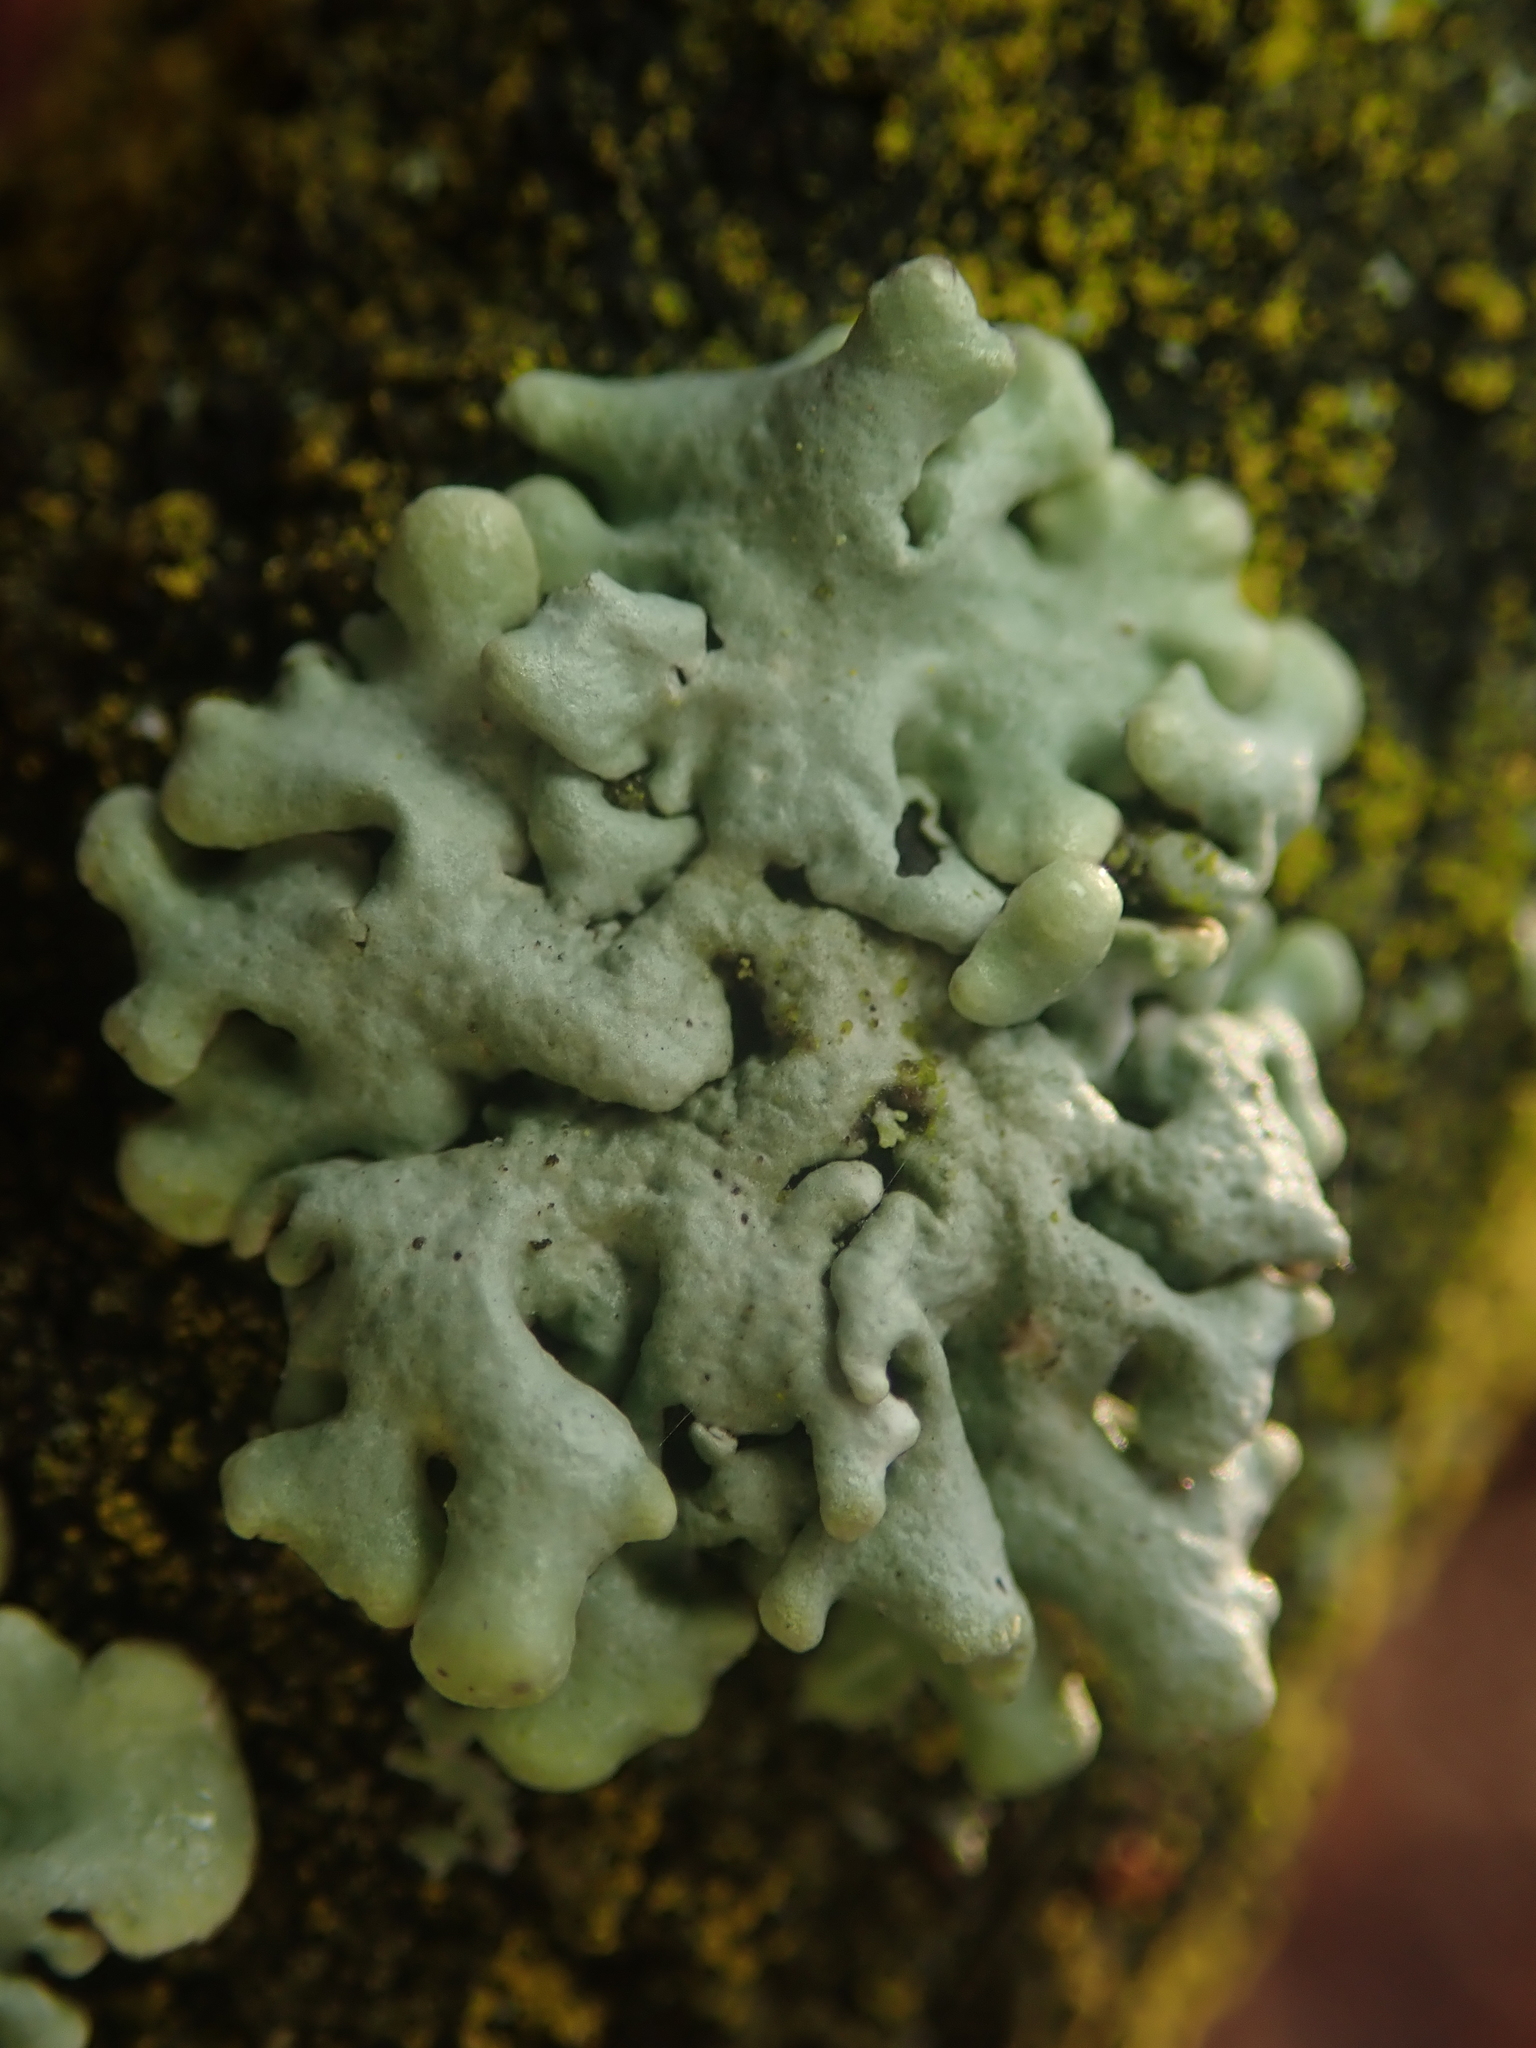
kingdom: Fungi
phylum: Ascomycota
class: Lecanoromycetes
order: Lecanorales
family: Parmeliaceae
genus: Hypogymnia
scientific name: Hypogymnia tubulosa
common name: Powder-headed tube lichen
